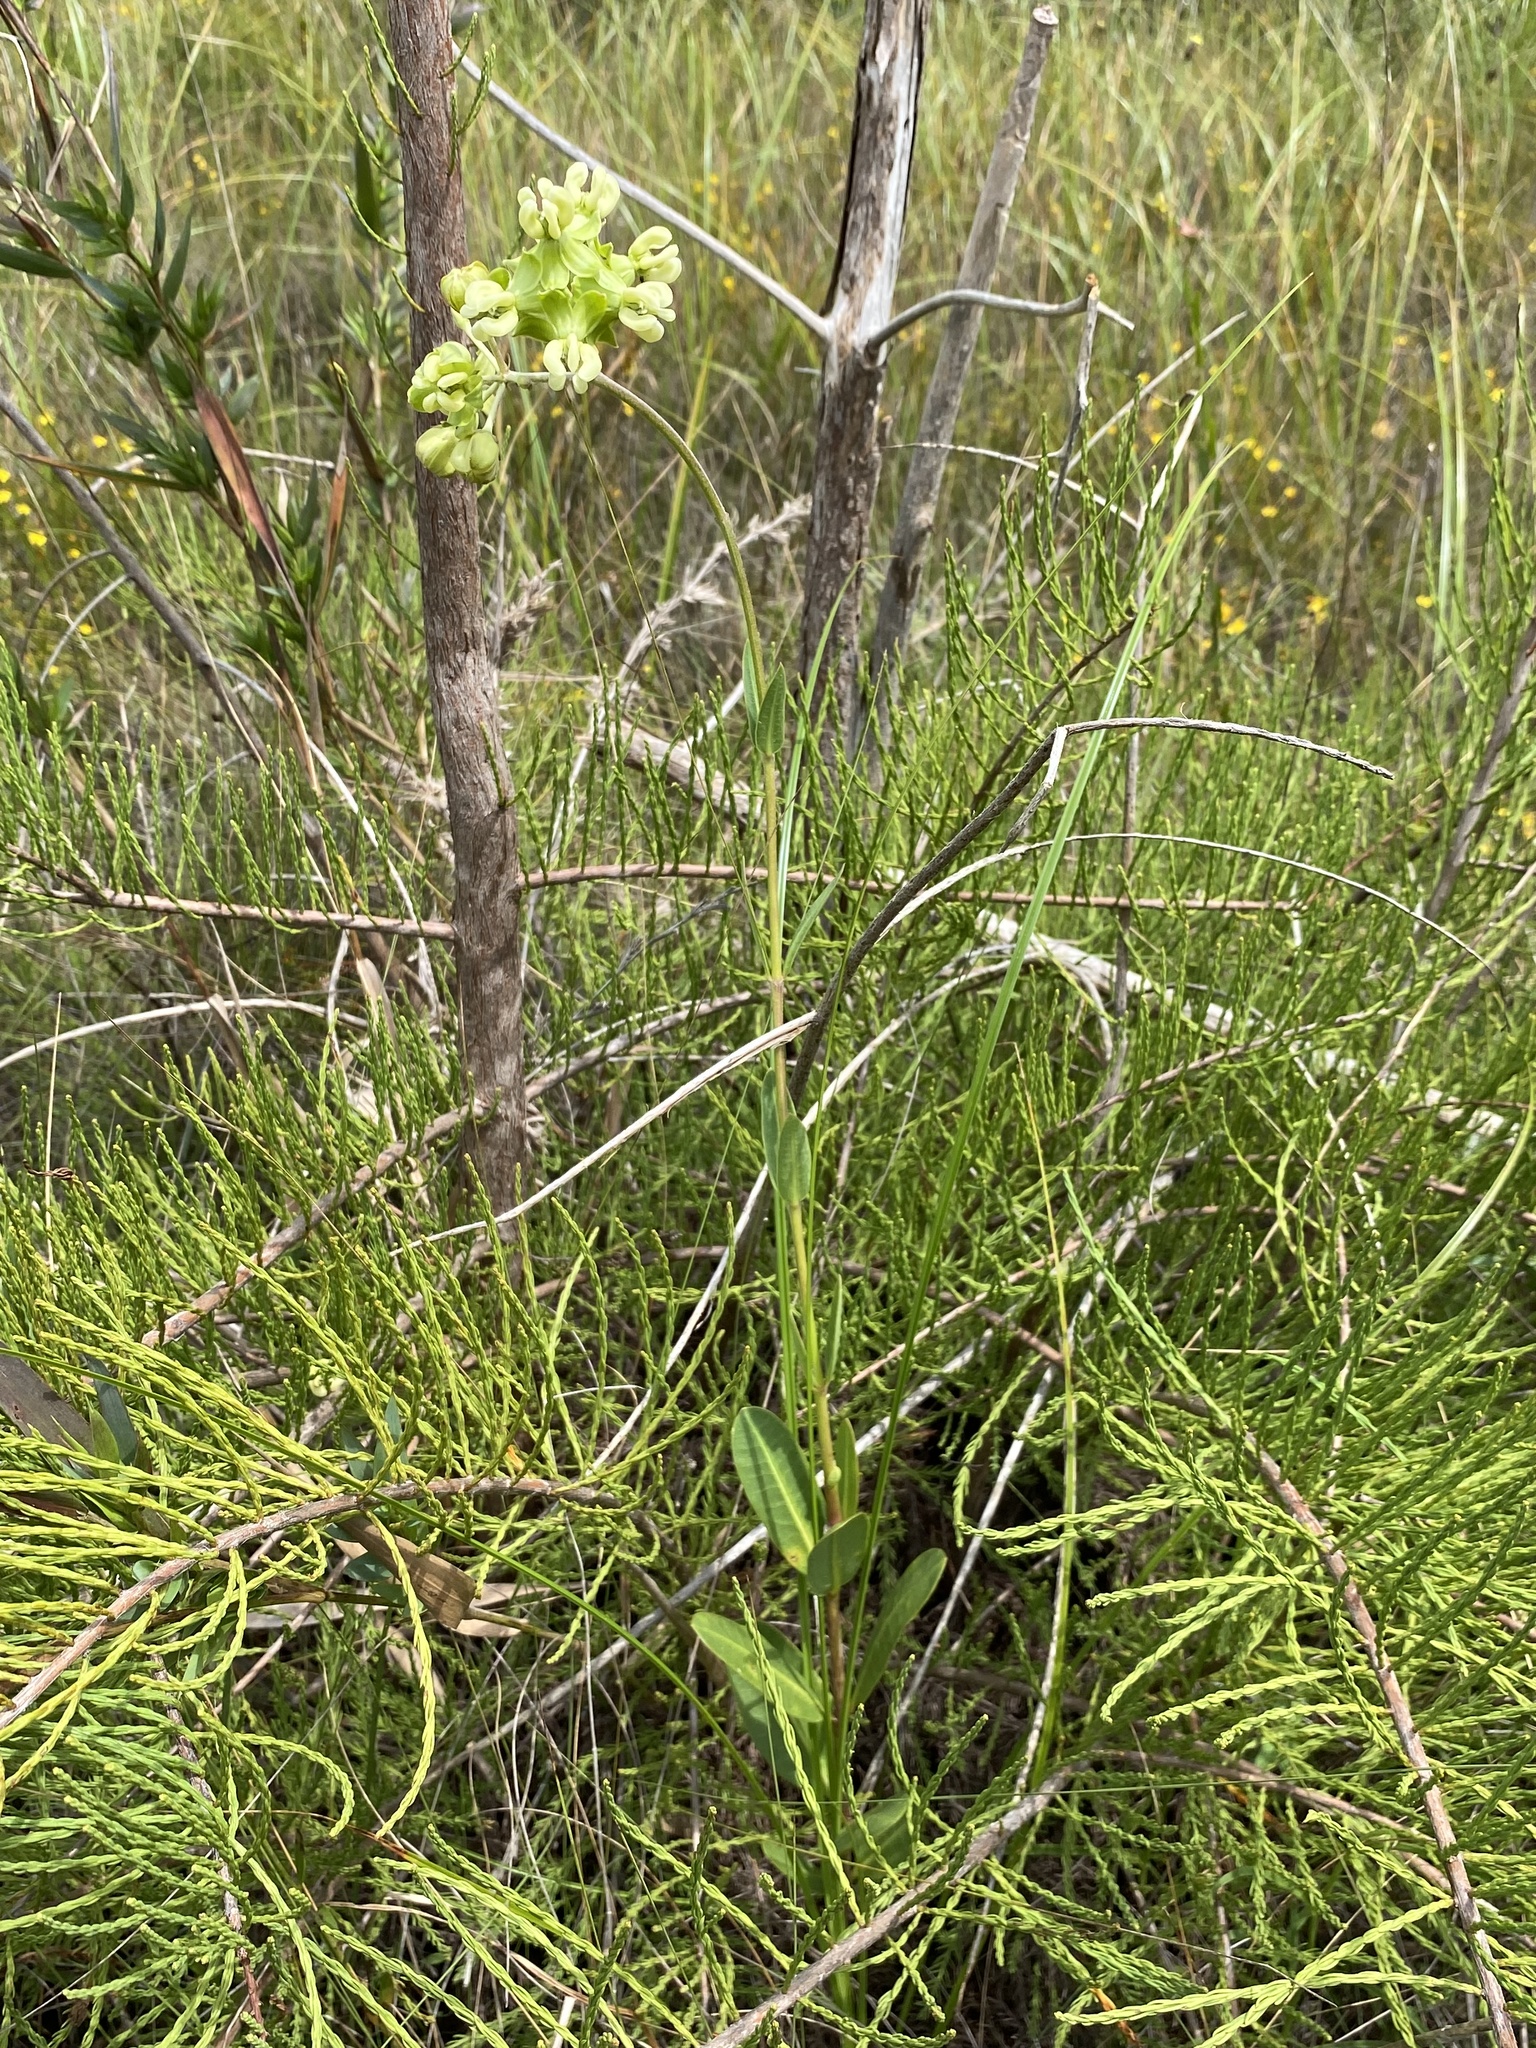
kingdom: Plantae
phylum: Tracheophyta
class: Magnoliopsida
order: Gentianales
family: Apocynaceae
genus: Asclepias
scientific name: Asclepias connivens
